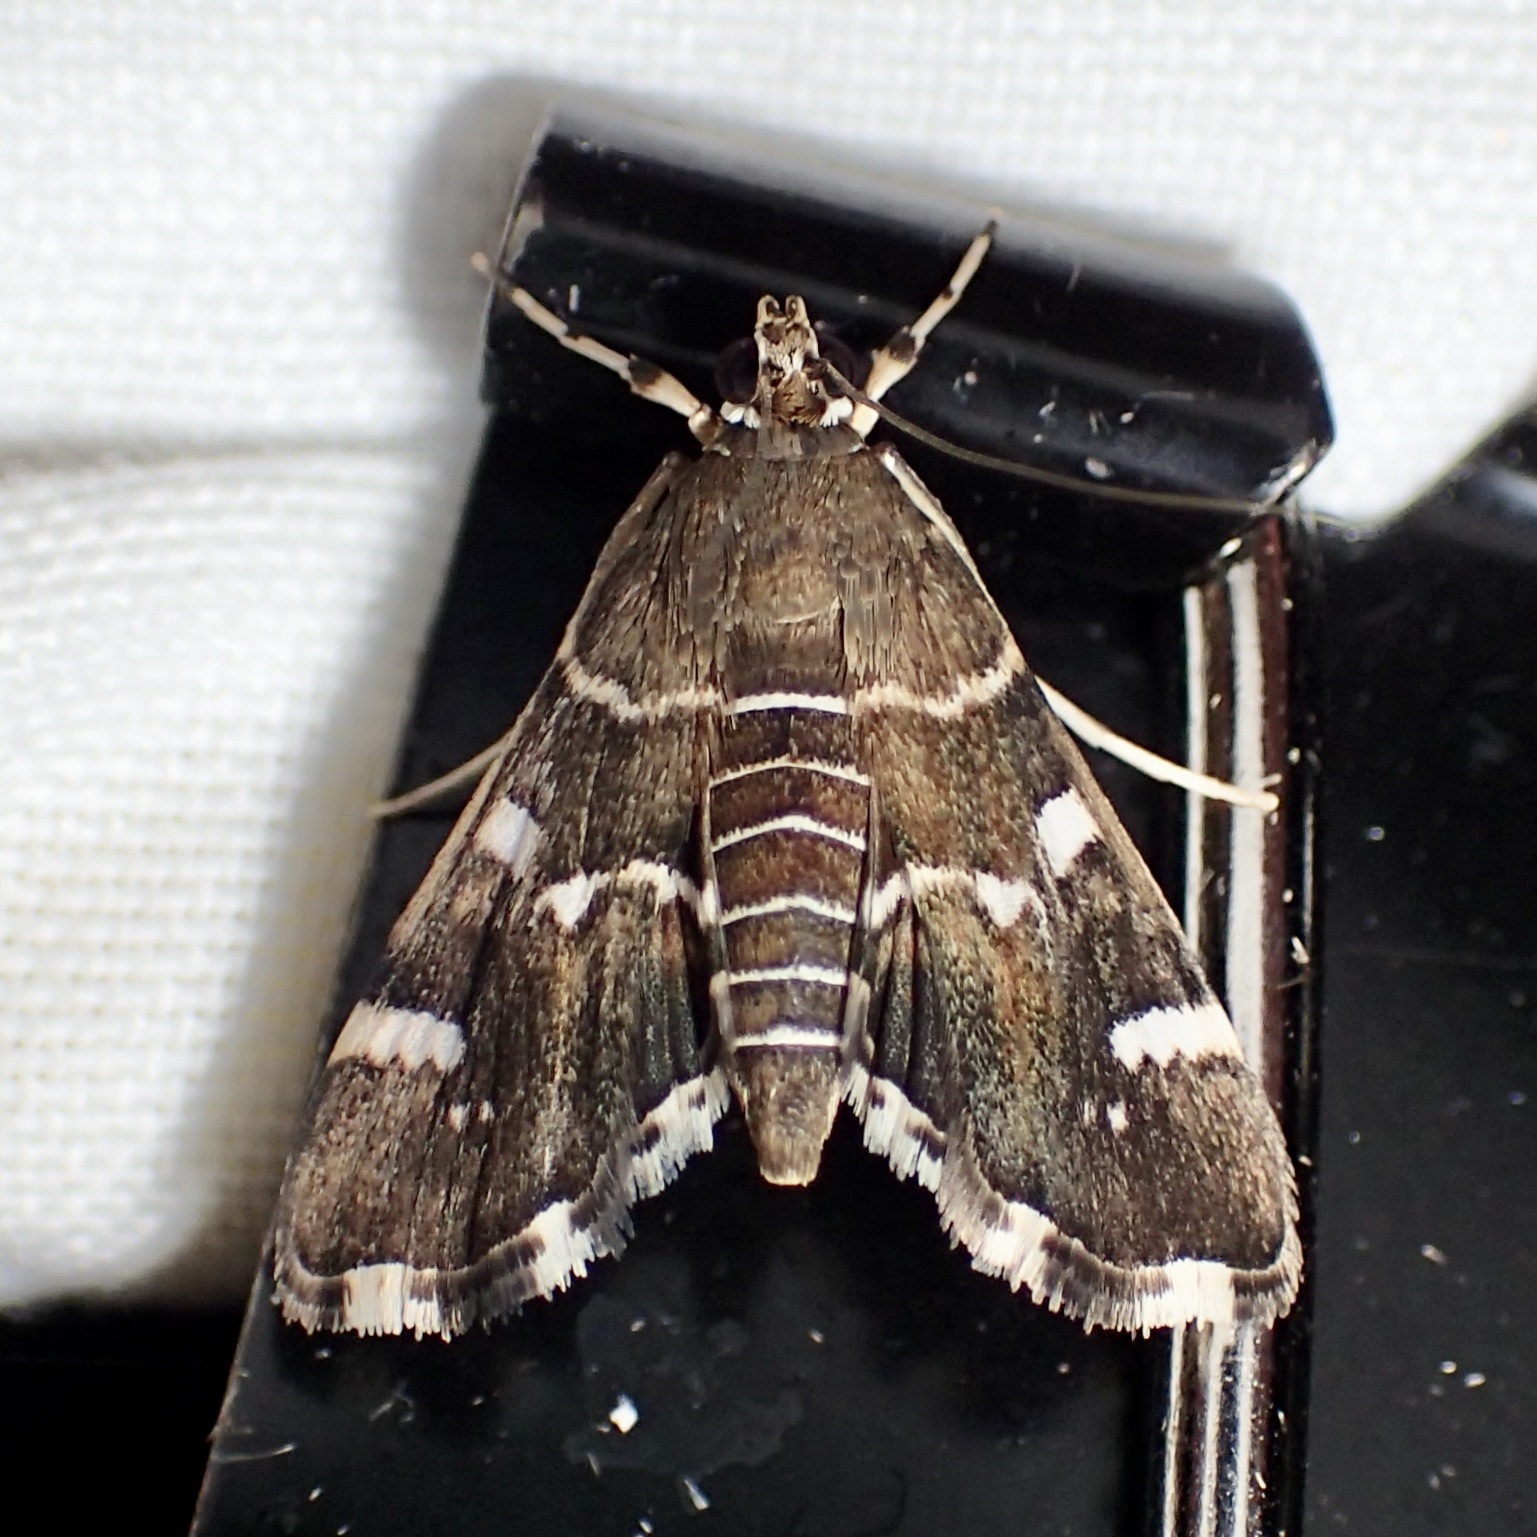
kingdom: Animalia
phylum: Arthropoda
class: Insecta
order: Lepidoptera
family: Crambidae
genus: Hymenia
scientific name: Hymenia perspectalis
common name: Spotted beet webworm
